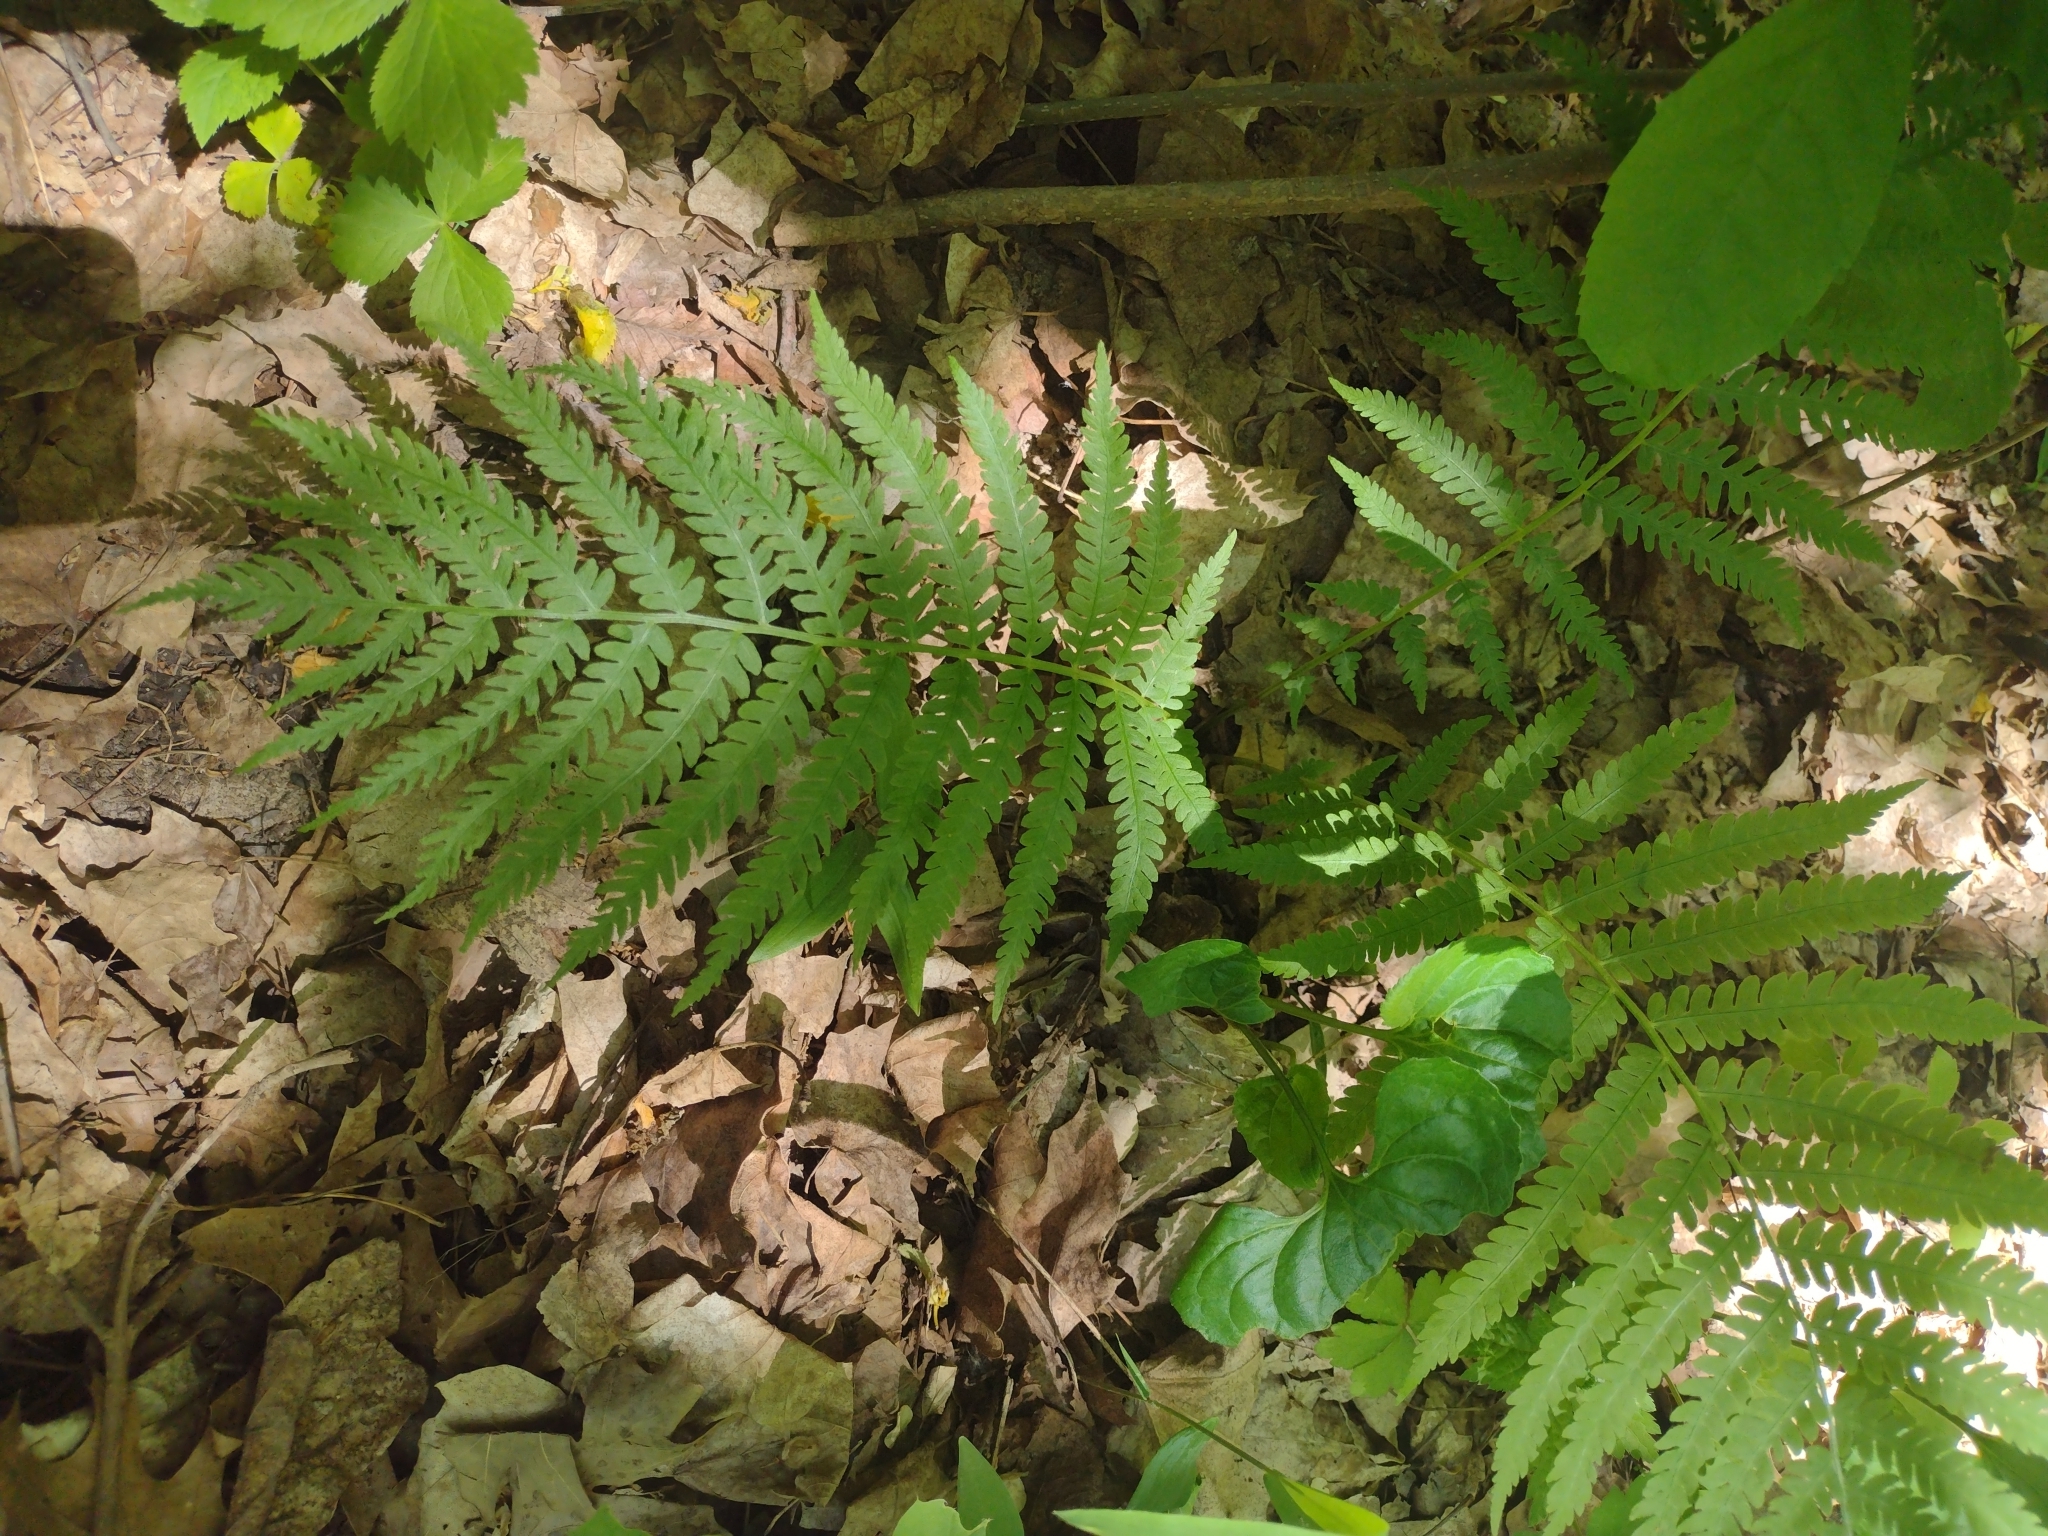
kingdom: Plantae
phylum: Tracheophyta
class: Polypodiopsida
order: Polypodiales
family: Athyriaceae
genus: Athyrium
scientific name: Athyrium angustum
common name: Northern lady fern
